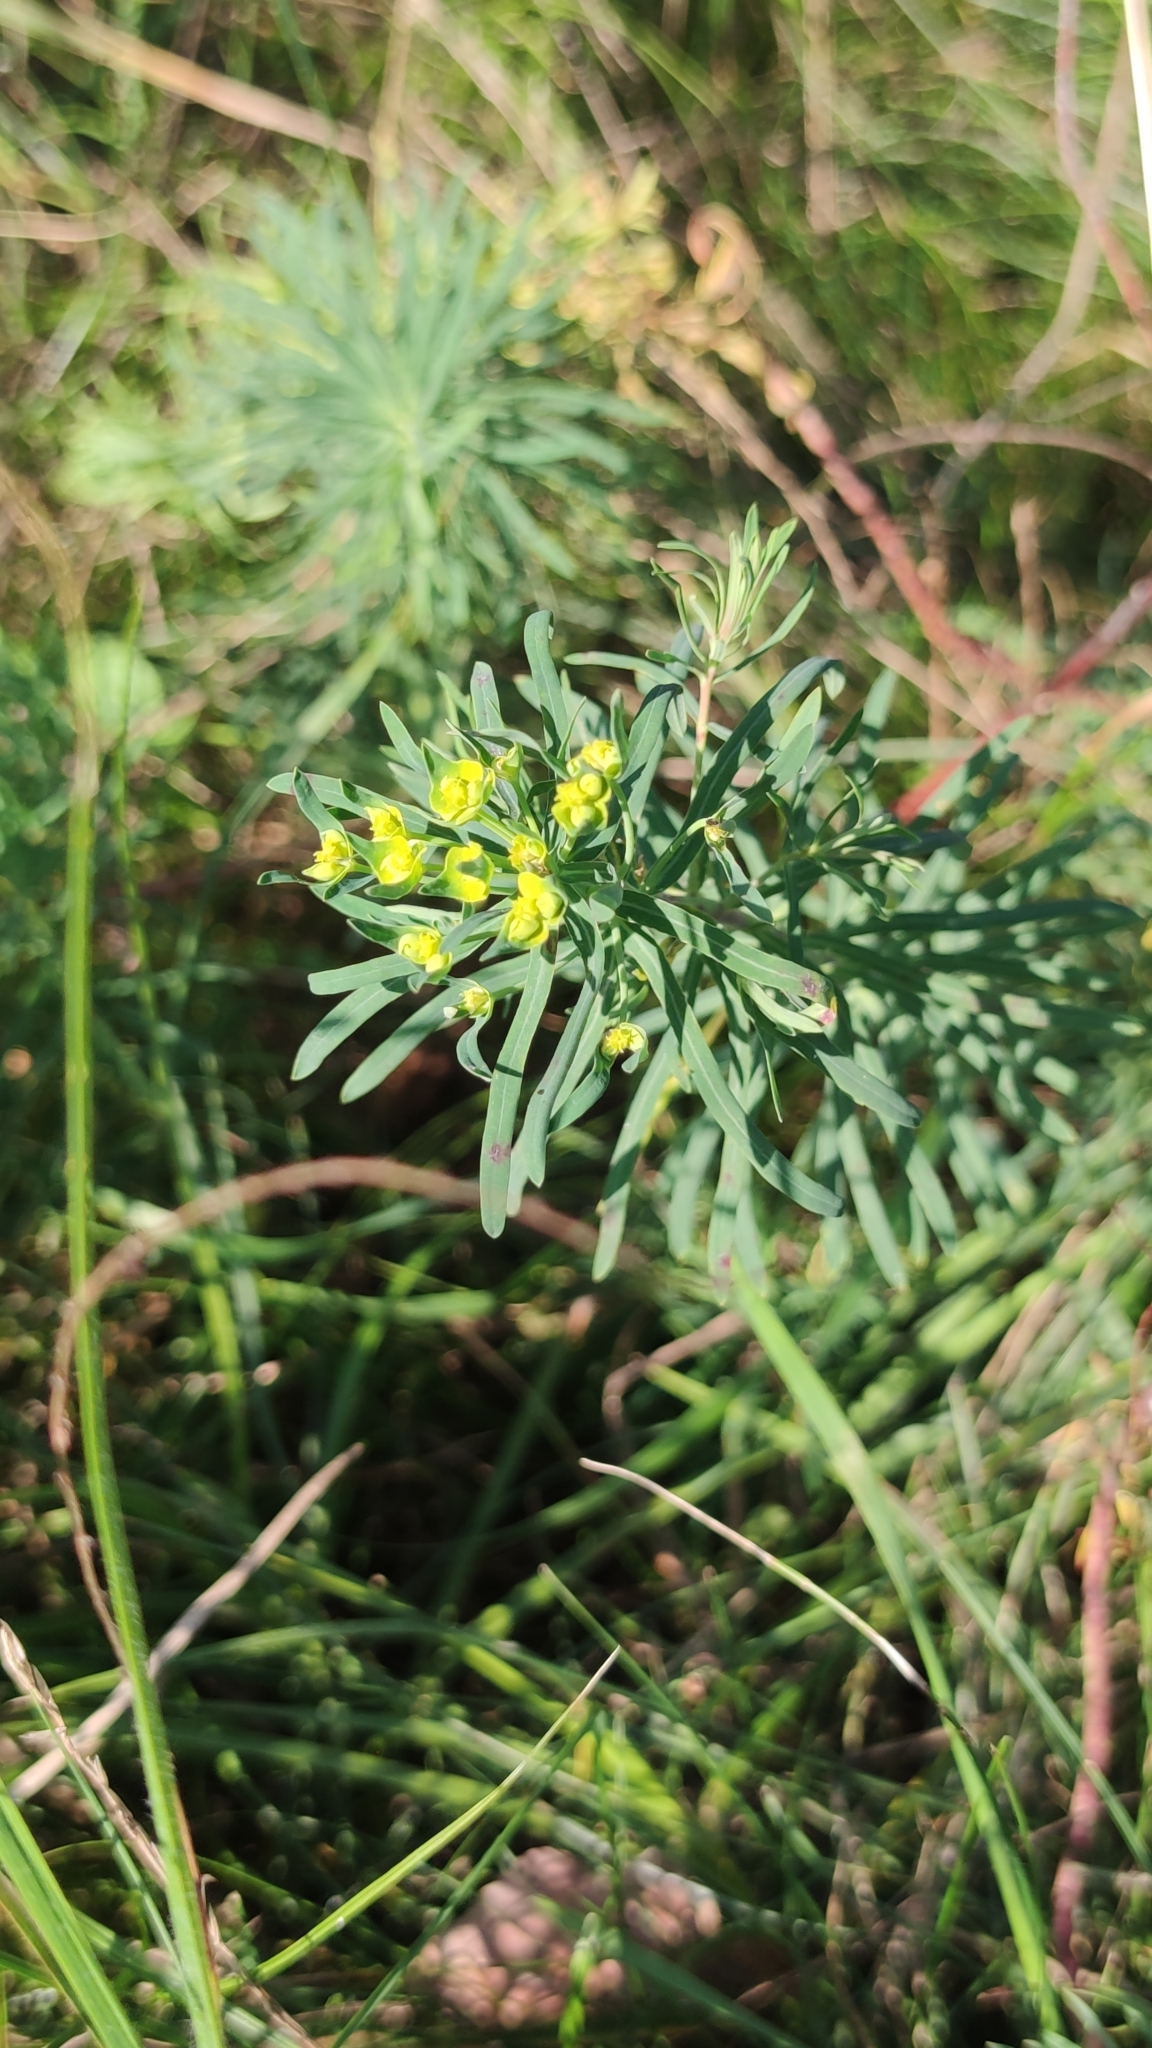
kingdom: Plantae
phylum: Tracheophyta
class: Magnoliopsida
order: Malpighiales
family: Euphorbiaceae
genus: Euphorbia
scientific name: Euphorbia cyparissias
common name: Cypress spurge
